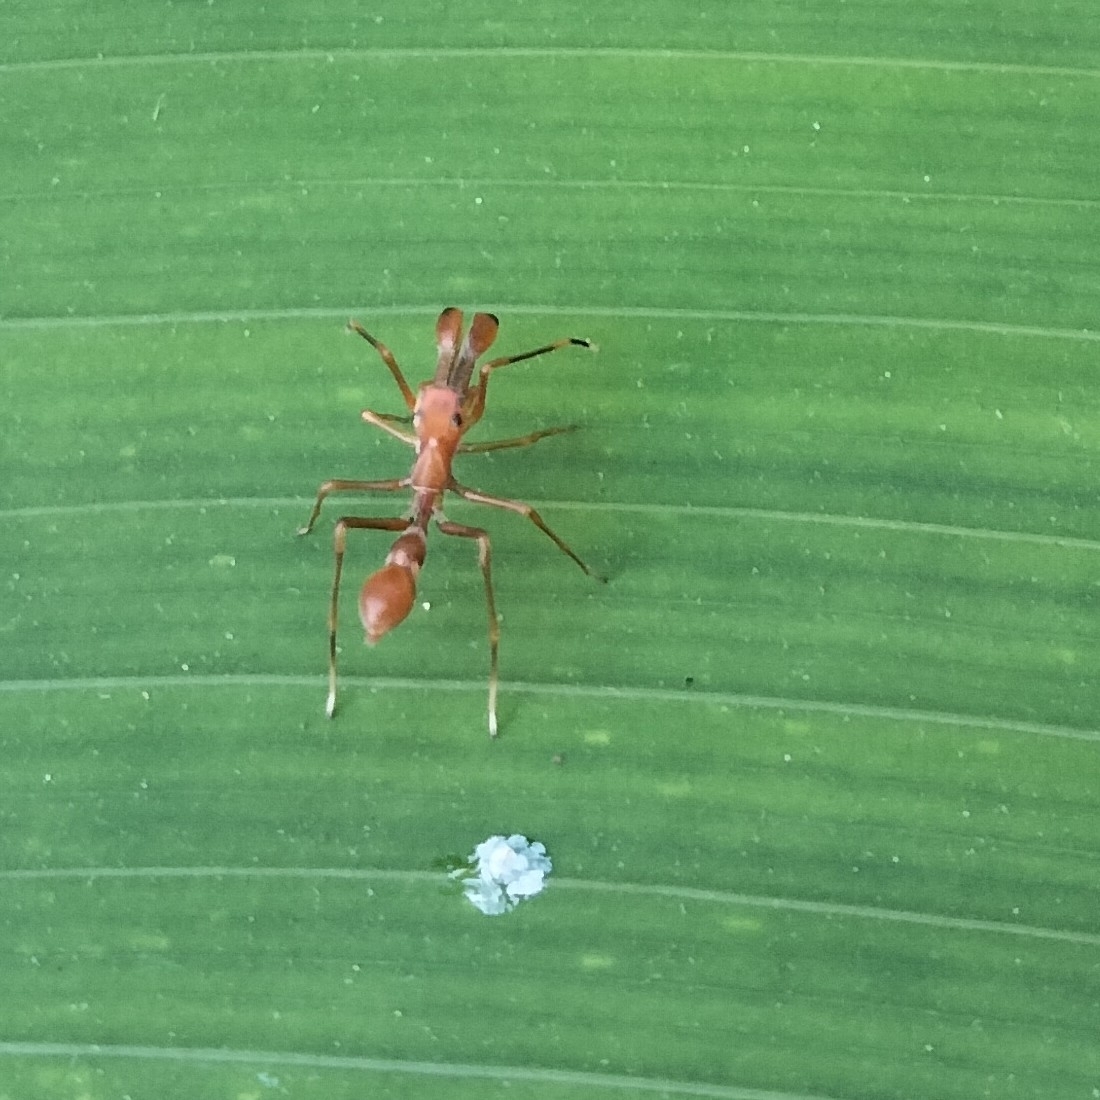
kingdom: Animalia
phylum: Arthropoda
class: Arachnida
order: Araneae
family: Salticidae
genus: Myrmaplata
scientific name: Myrmaplata plataleoides
